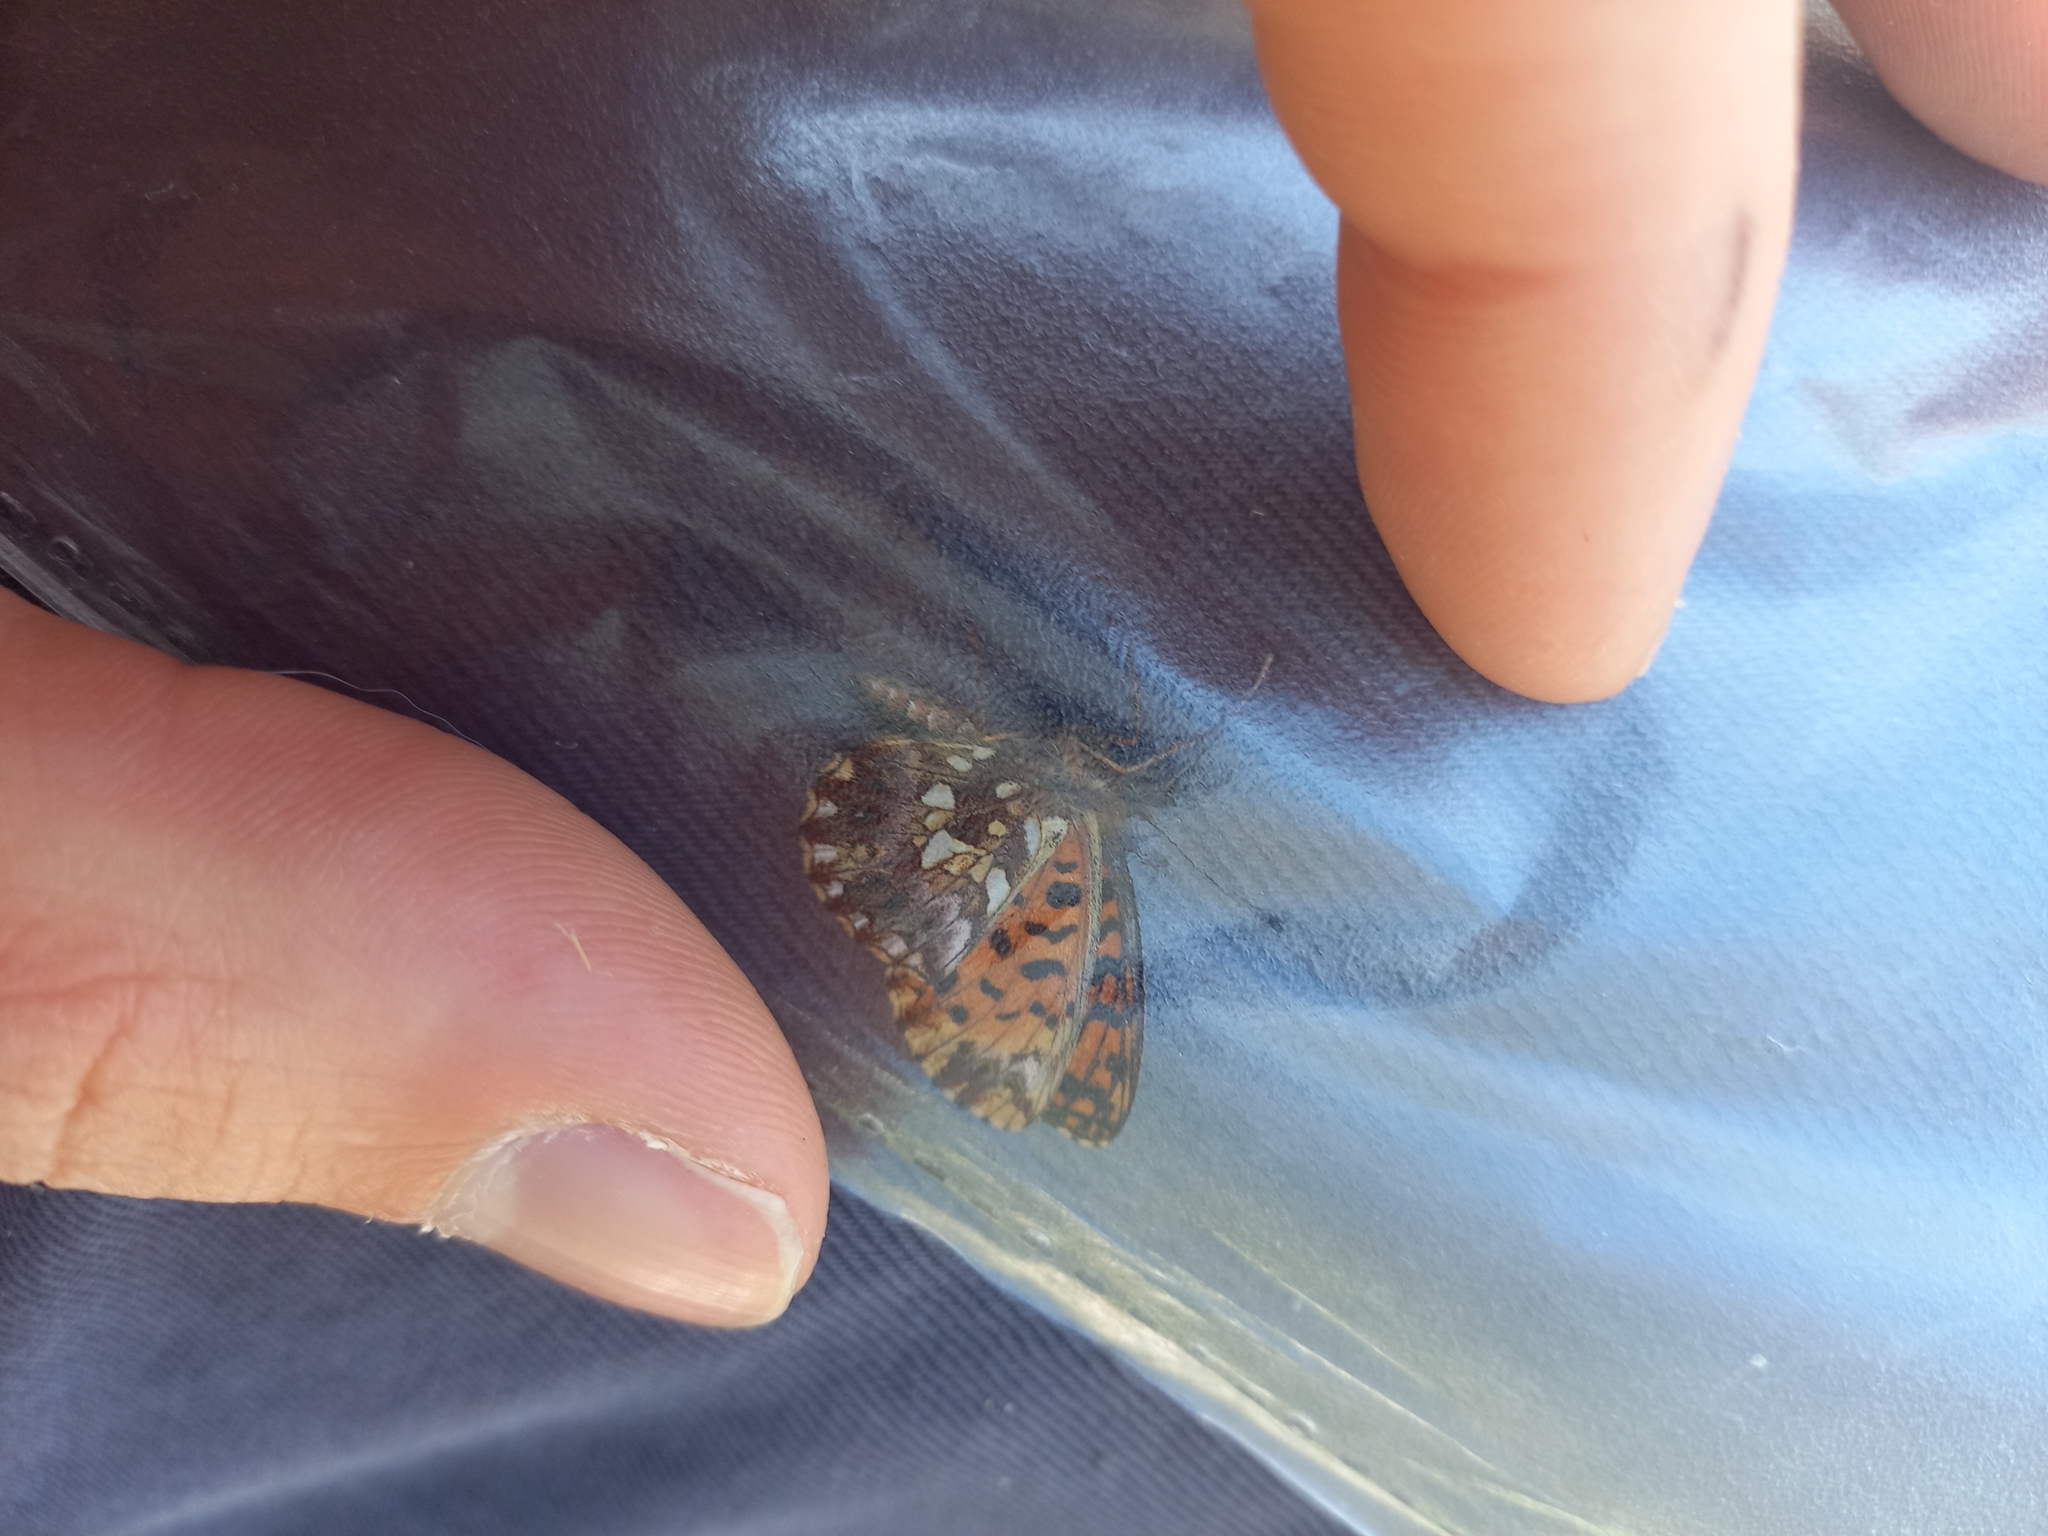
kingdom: Animalia
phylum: Arthropoda
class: Insecta
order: Lepidoptera
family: Nymphalidae
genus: Boloria
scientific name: Boloria dia
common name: Weaver's fritillary
